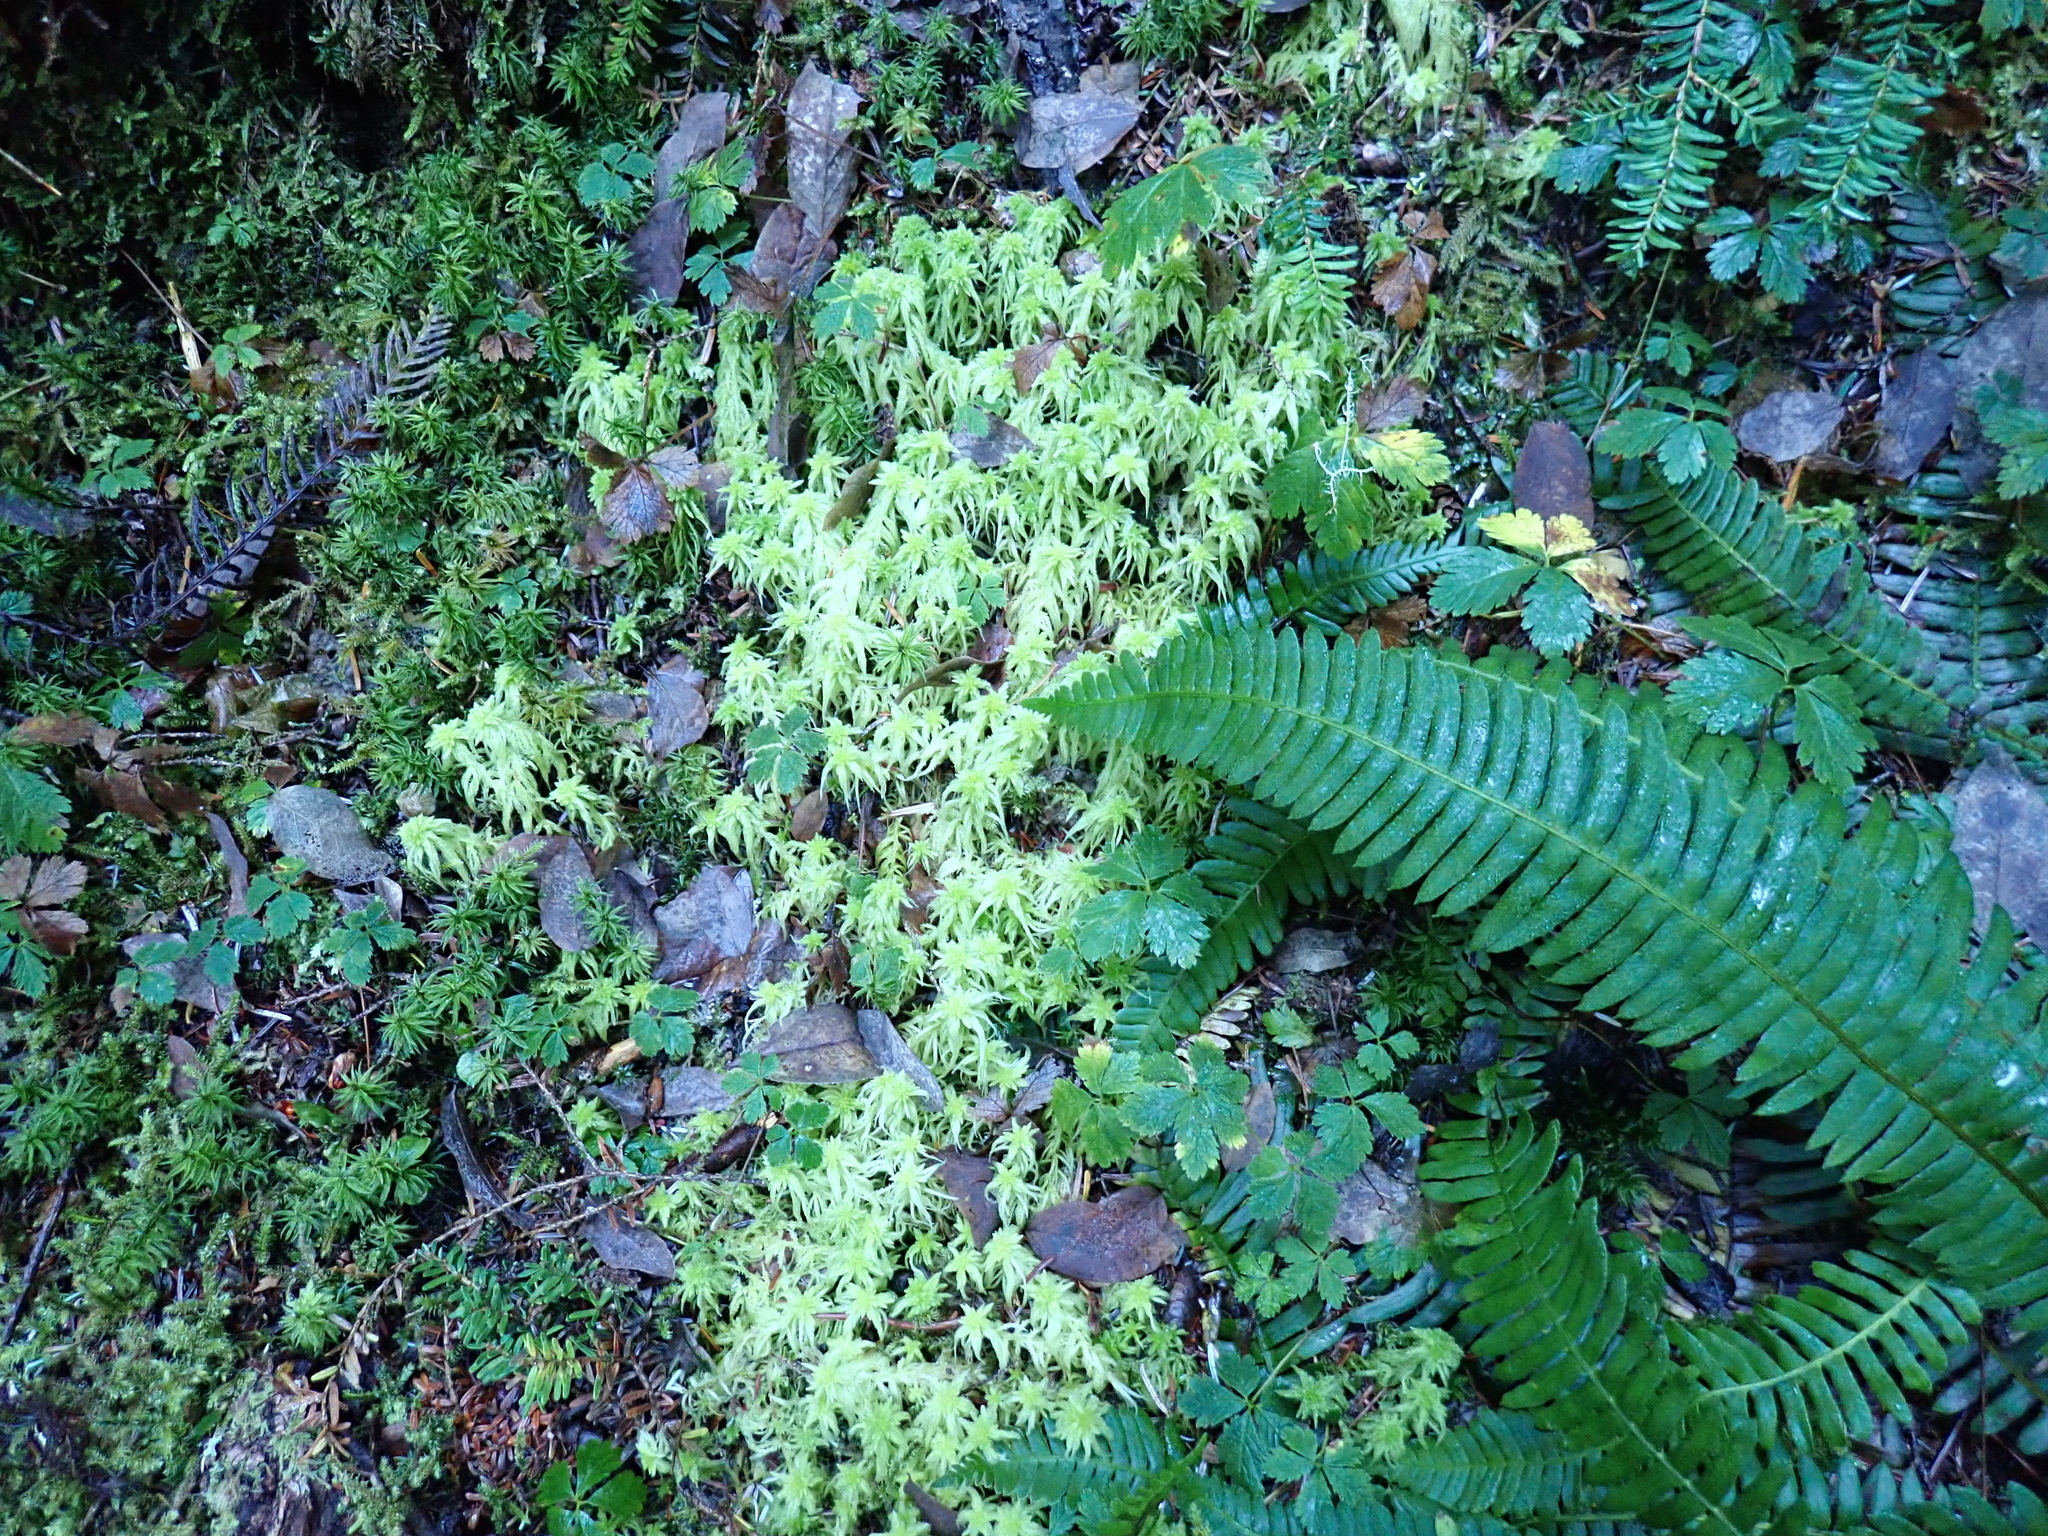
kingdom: Plantae
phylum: Bryophyta
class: Sphagnopsida
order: Sphagnales
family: Sphagnaceae
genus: Sphagnum
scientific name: Sphagnum girgensohnii
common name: Girgensohn's peat moss
